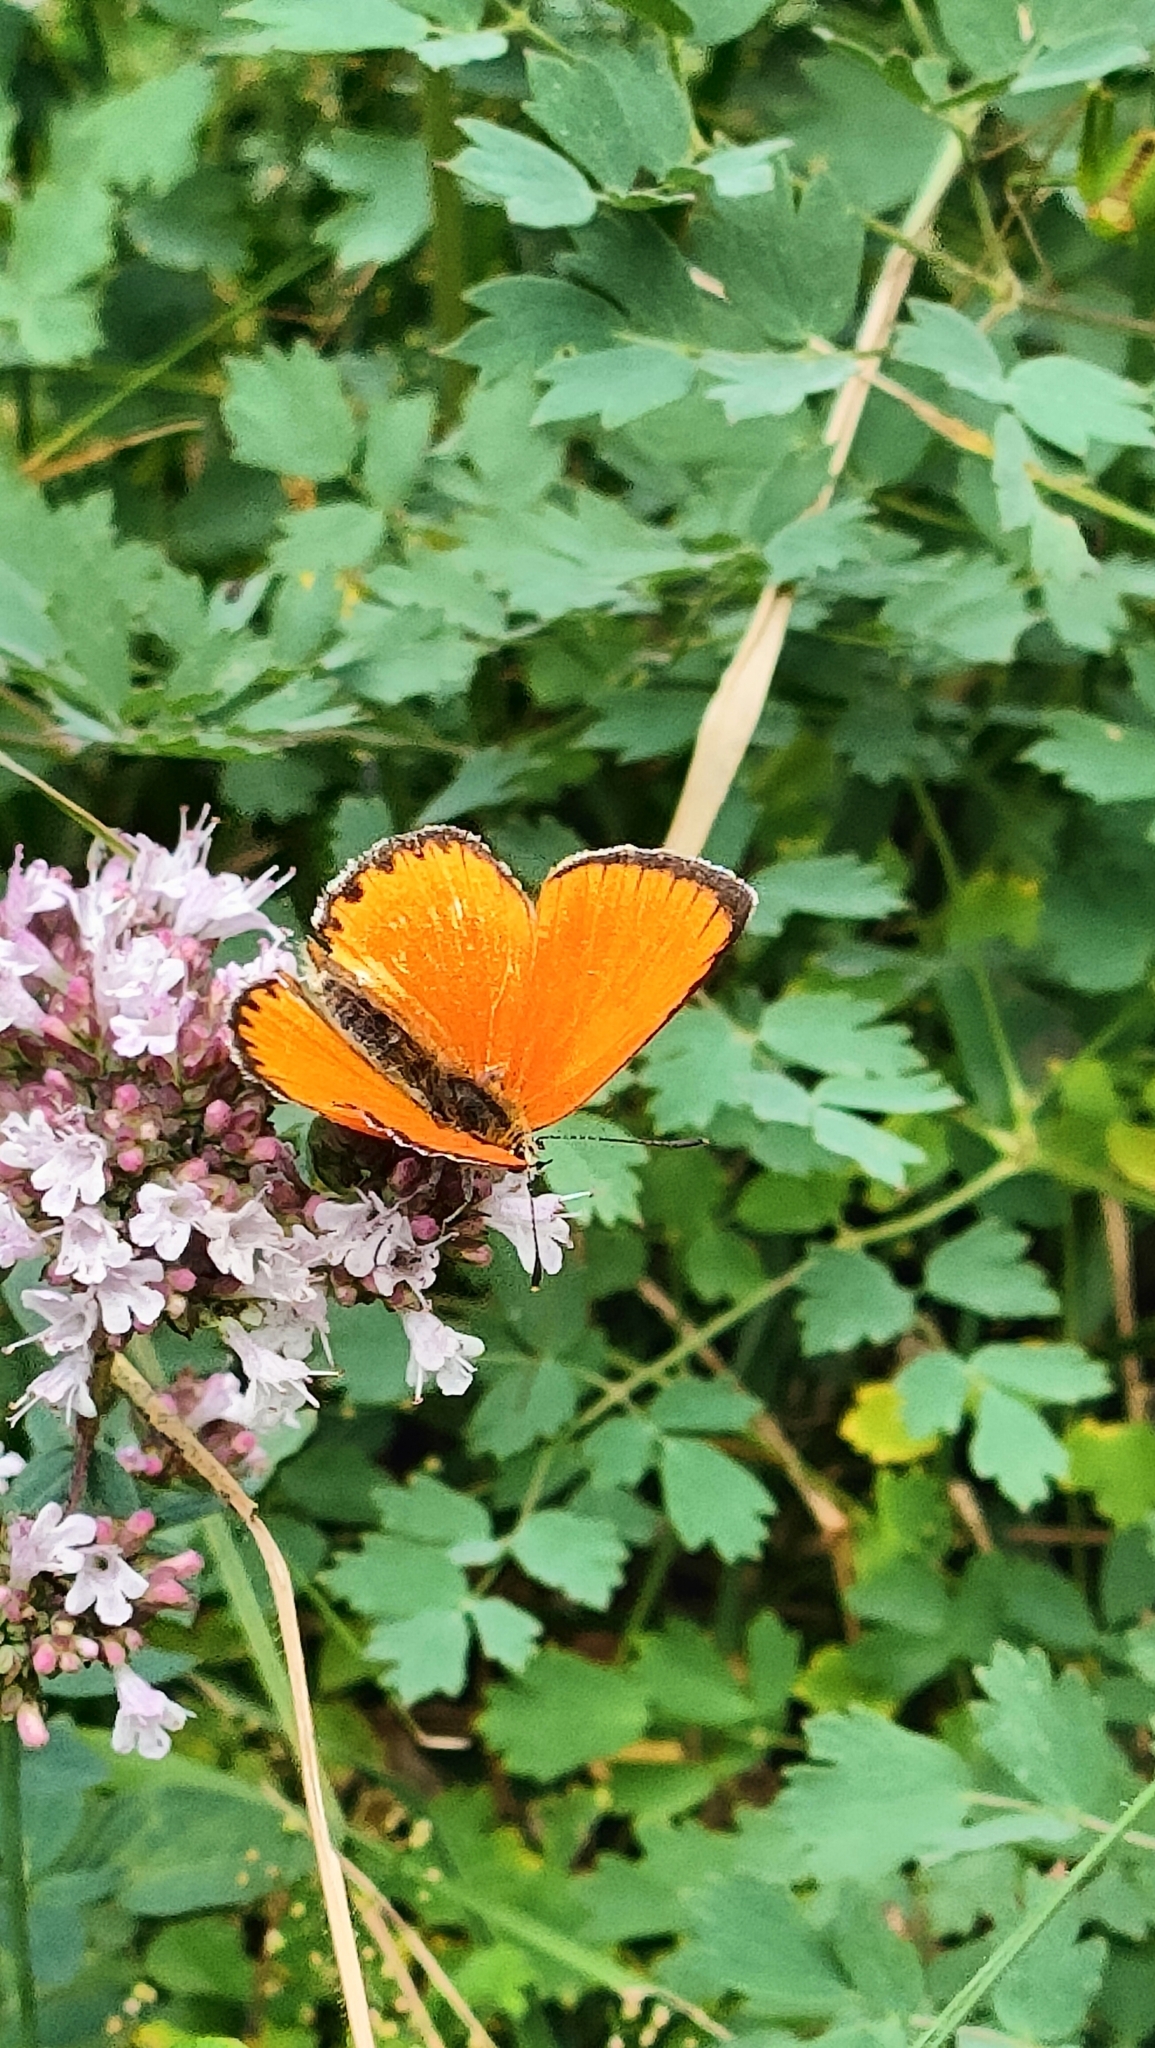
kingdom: Animalia
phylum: Arthropoda
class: Insecta
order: Lepidoptera
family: Lycaenidae
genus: Lycaena
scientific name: Lycaena virgaureae
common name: Scarce copper
